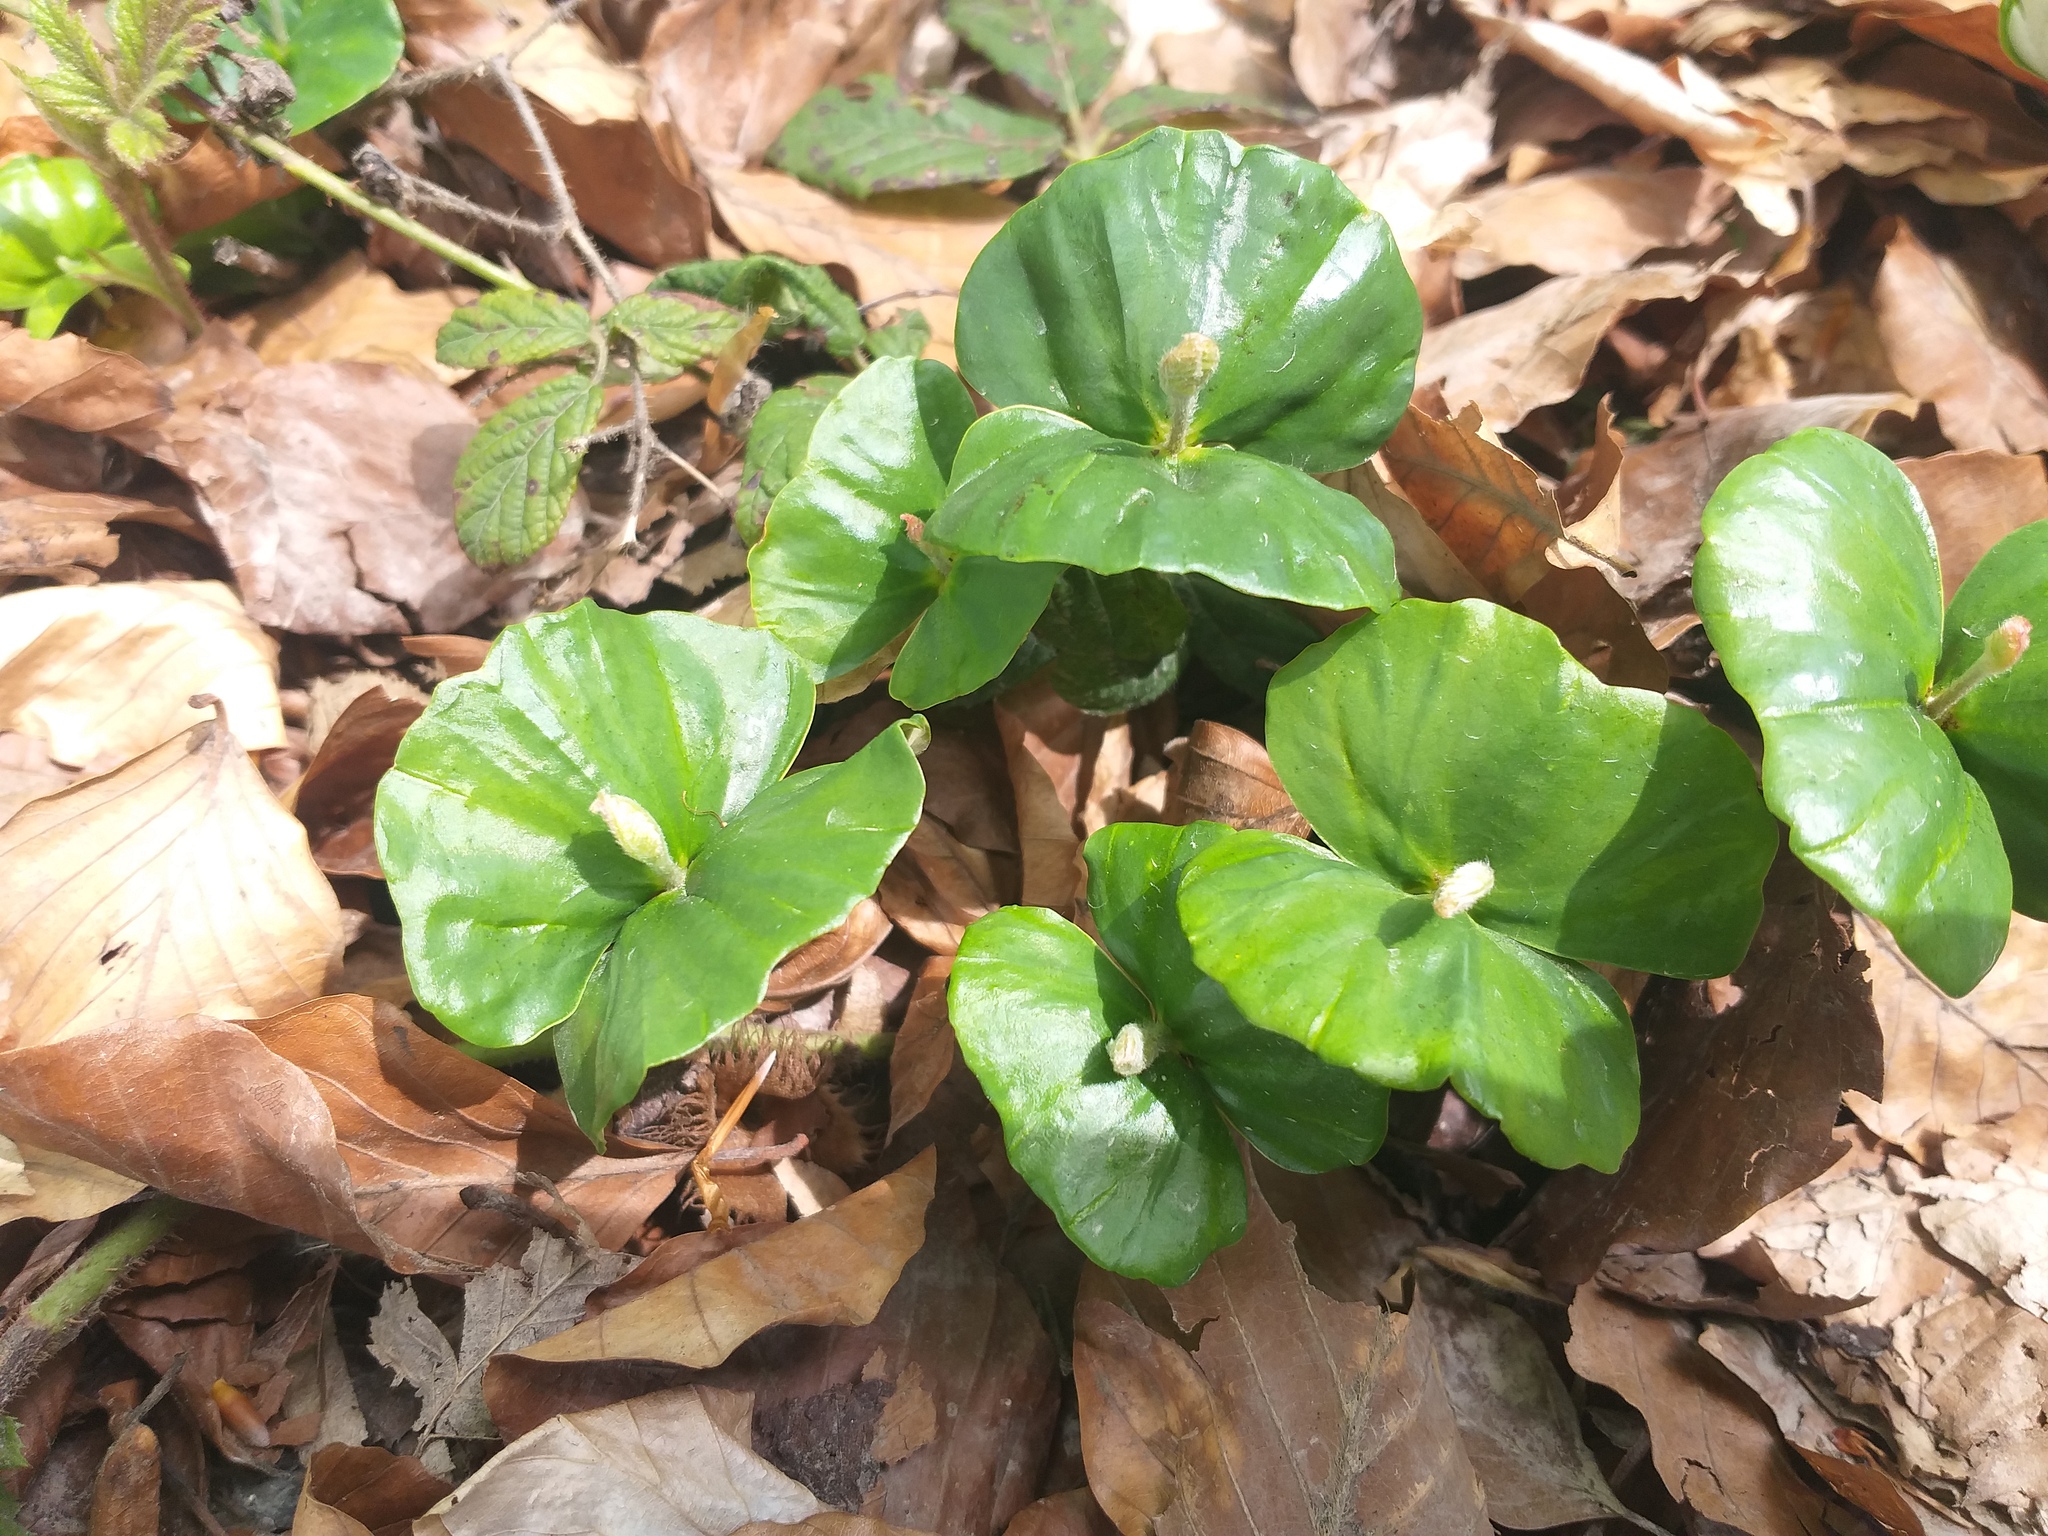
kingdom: Plantae
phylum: Tracheophyta
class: Magnoliopsida
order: Fagales
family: Fagaceae
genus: Fagus
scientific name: Fagus sylvatica
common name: Beech
